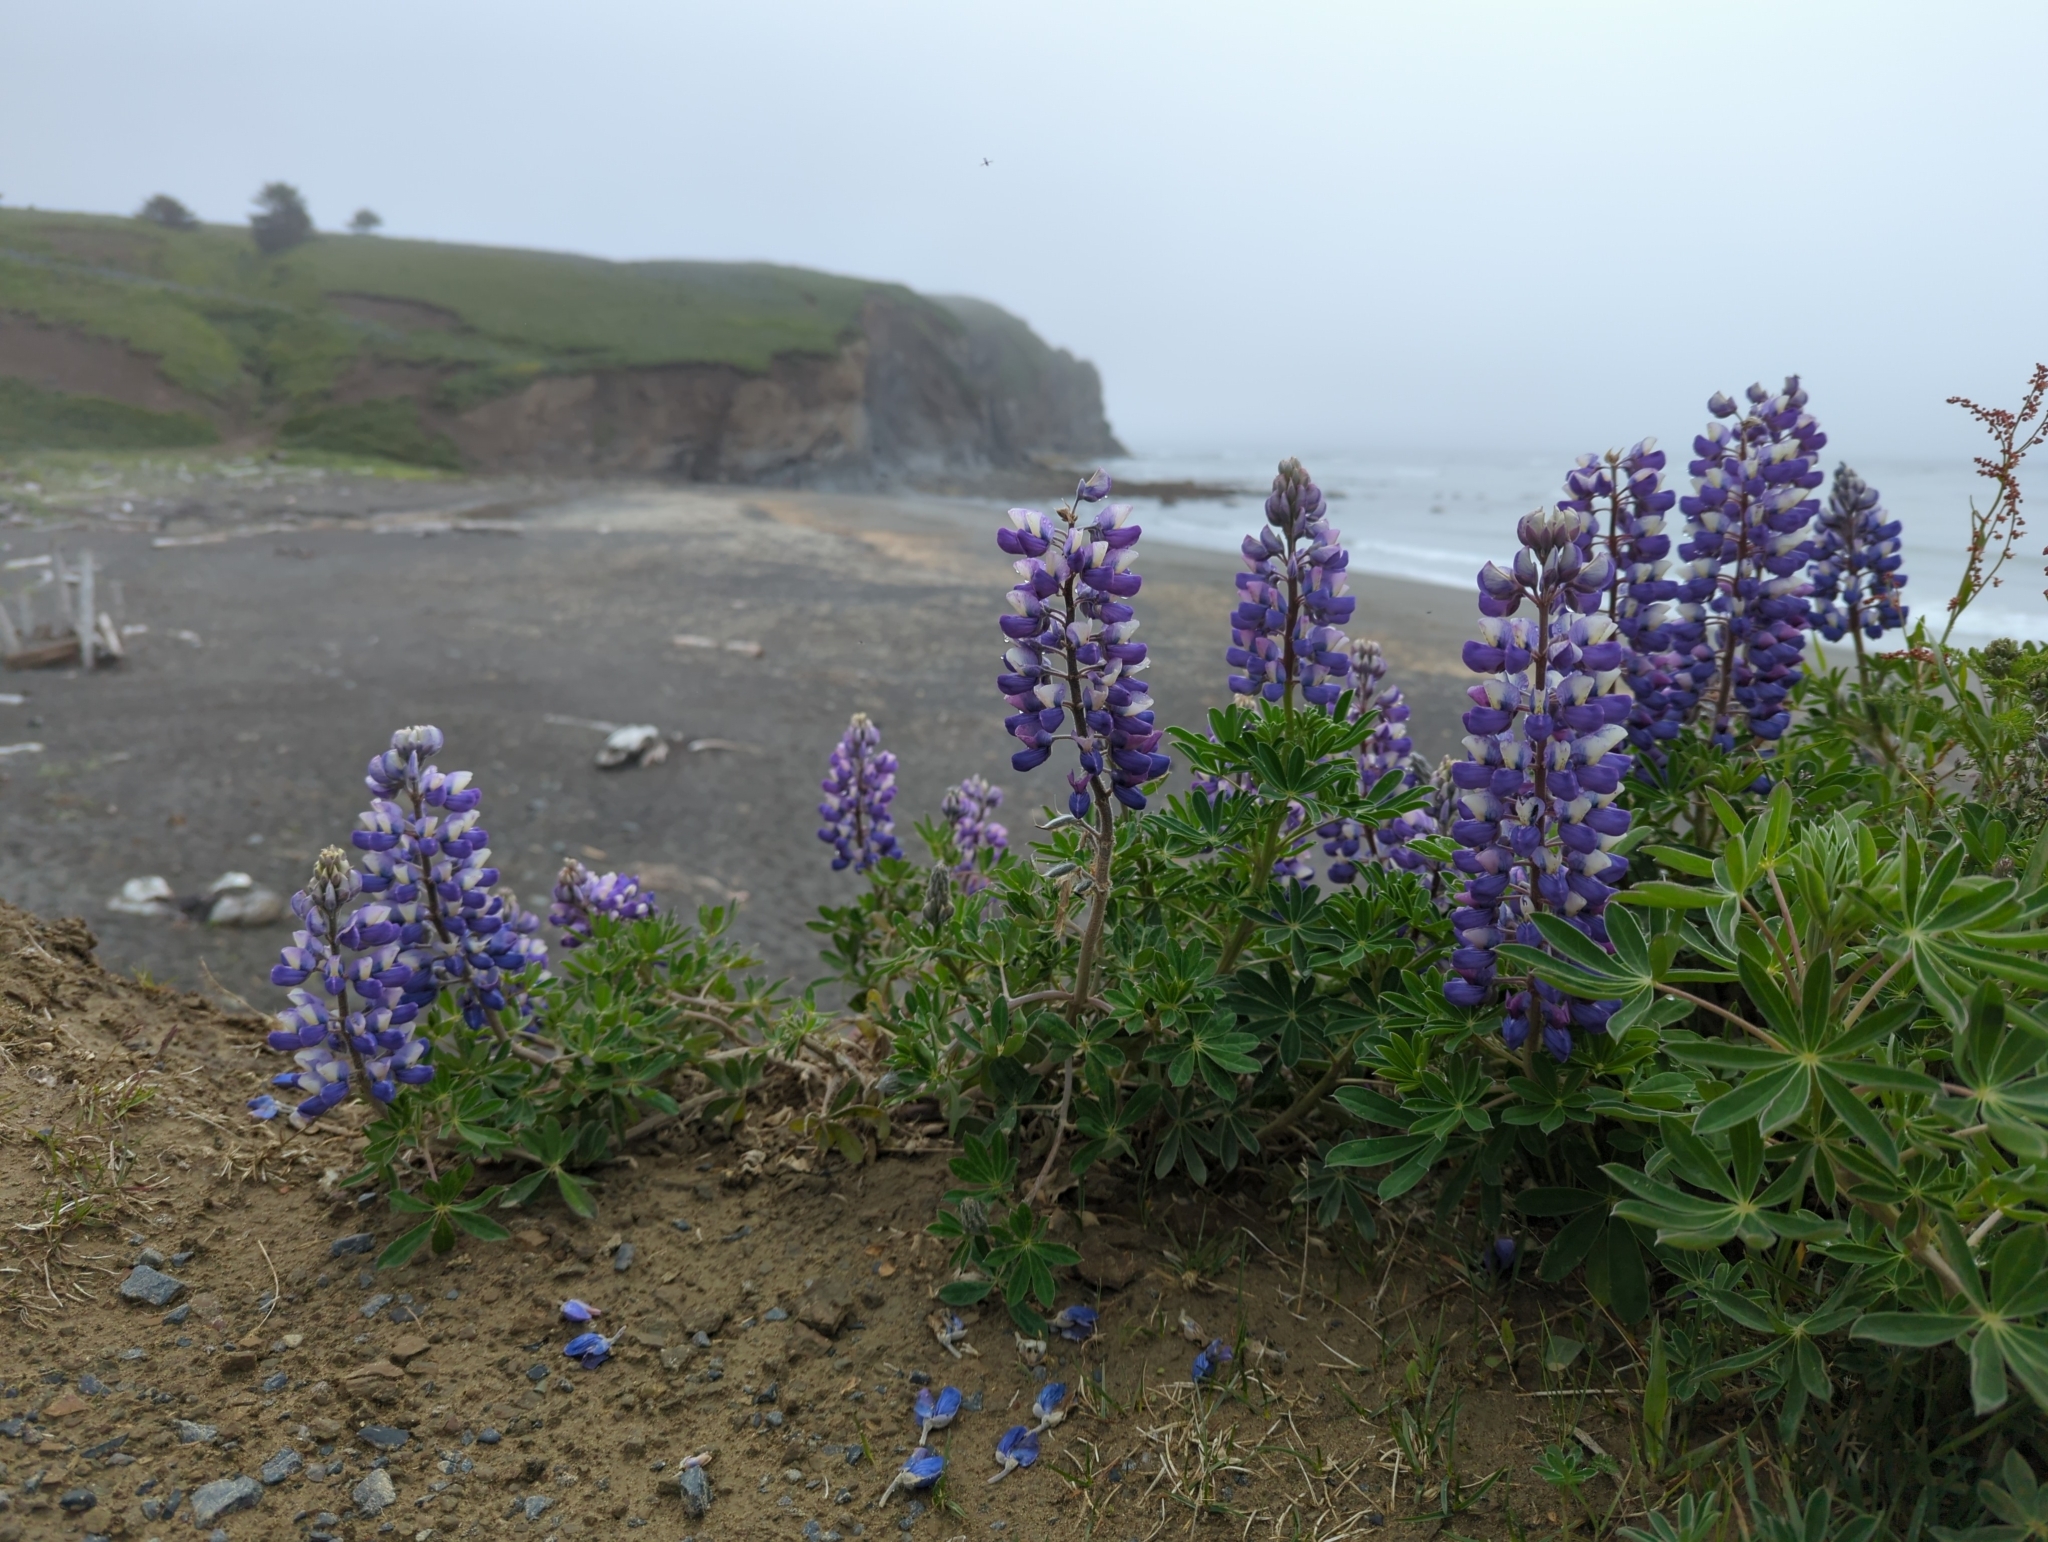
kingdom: Plantae
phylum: Tracheophyta
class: Magnoliopsida
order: Fabales
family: Fabaceae
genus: Lupinus
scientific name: Lupinus nootkatensis
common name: Nootka lupine
